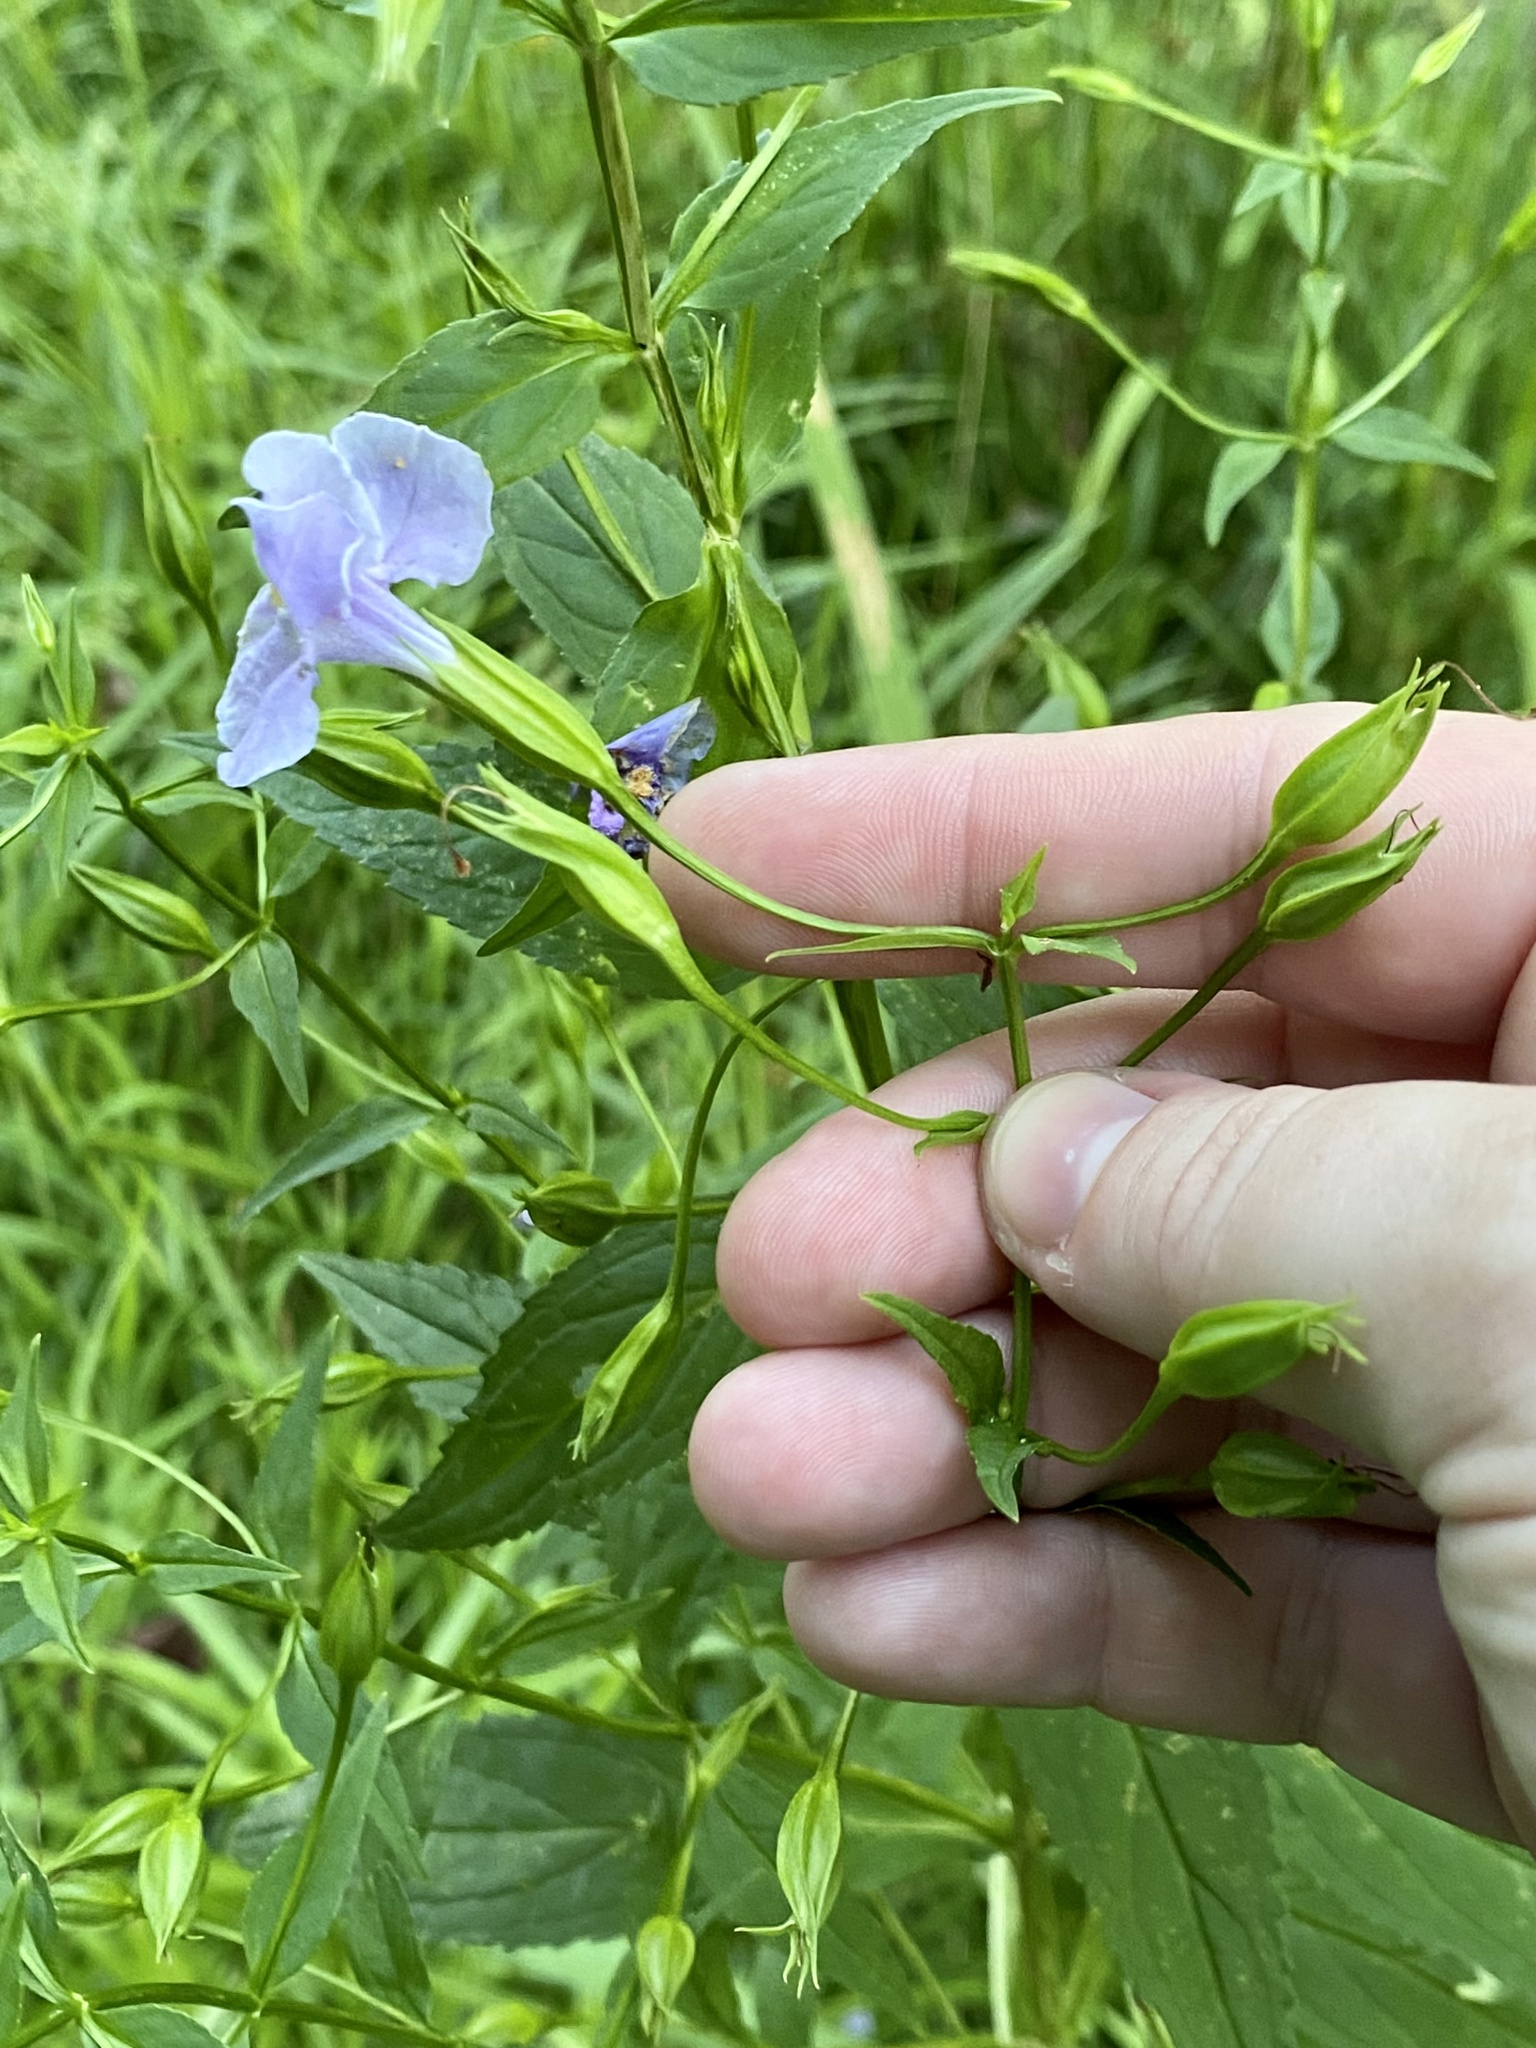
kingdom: Plantae
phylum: Tracheophyta
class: Magnoliopsida
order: Lamiales
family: Phrymaceae
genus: Mimulus
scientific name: Mimulus ringens
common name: Allegheny monkeyflower
